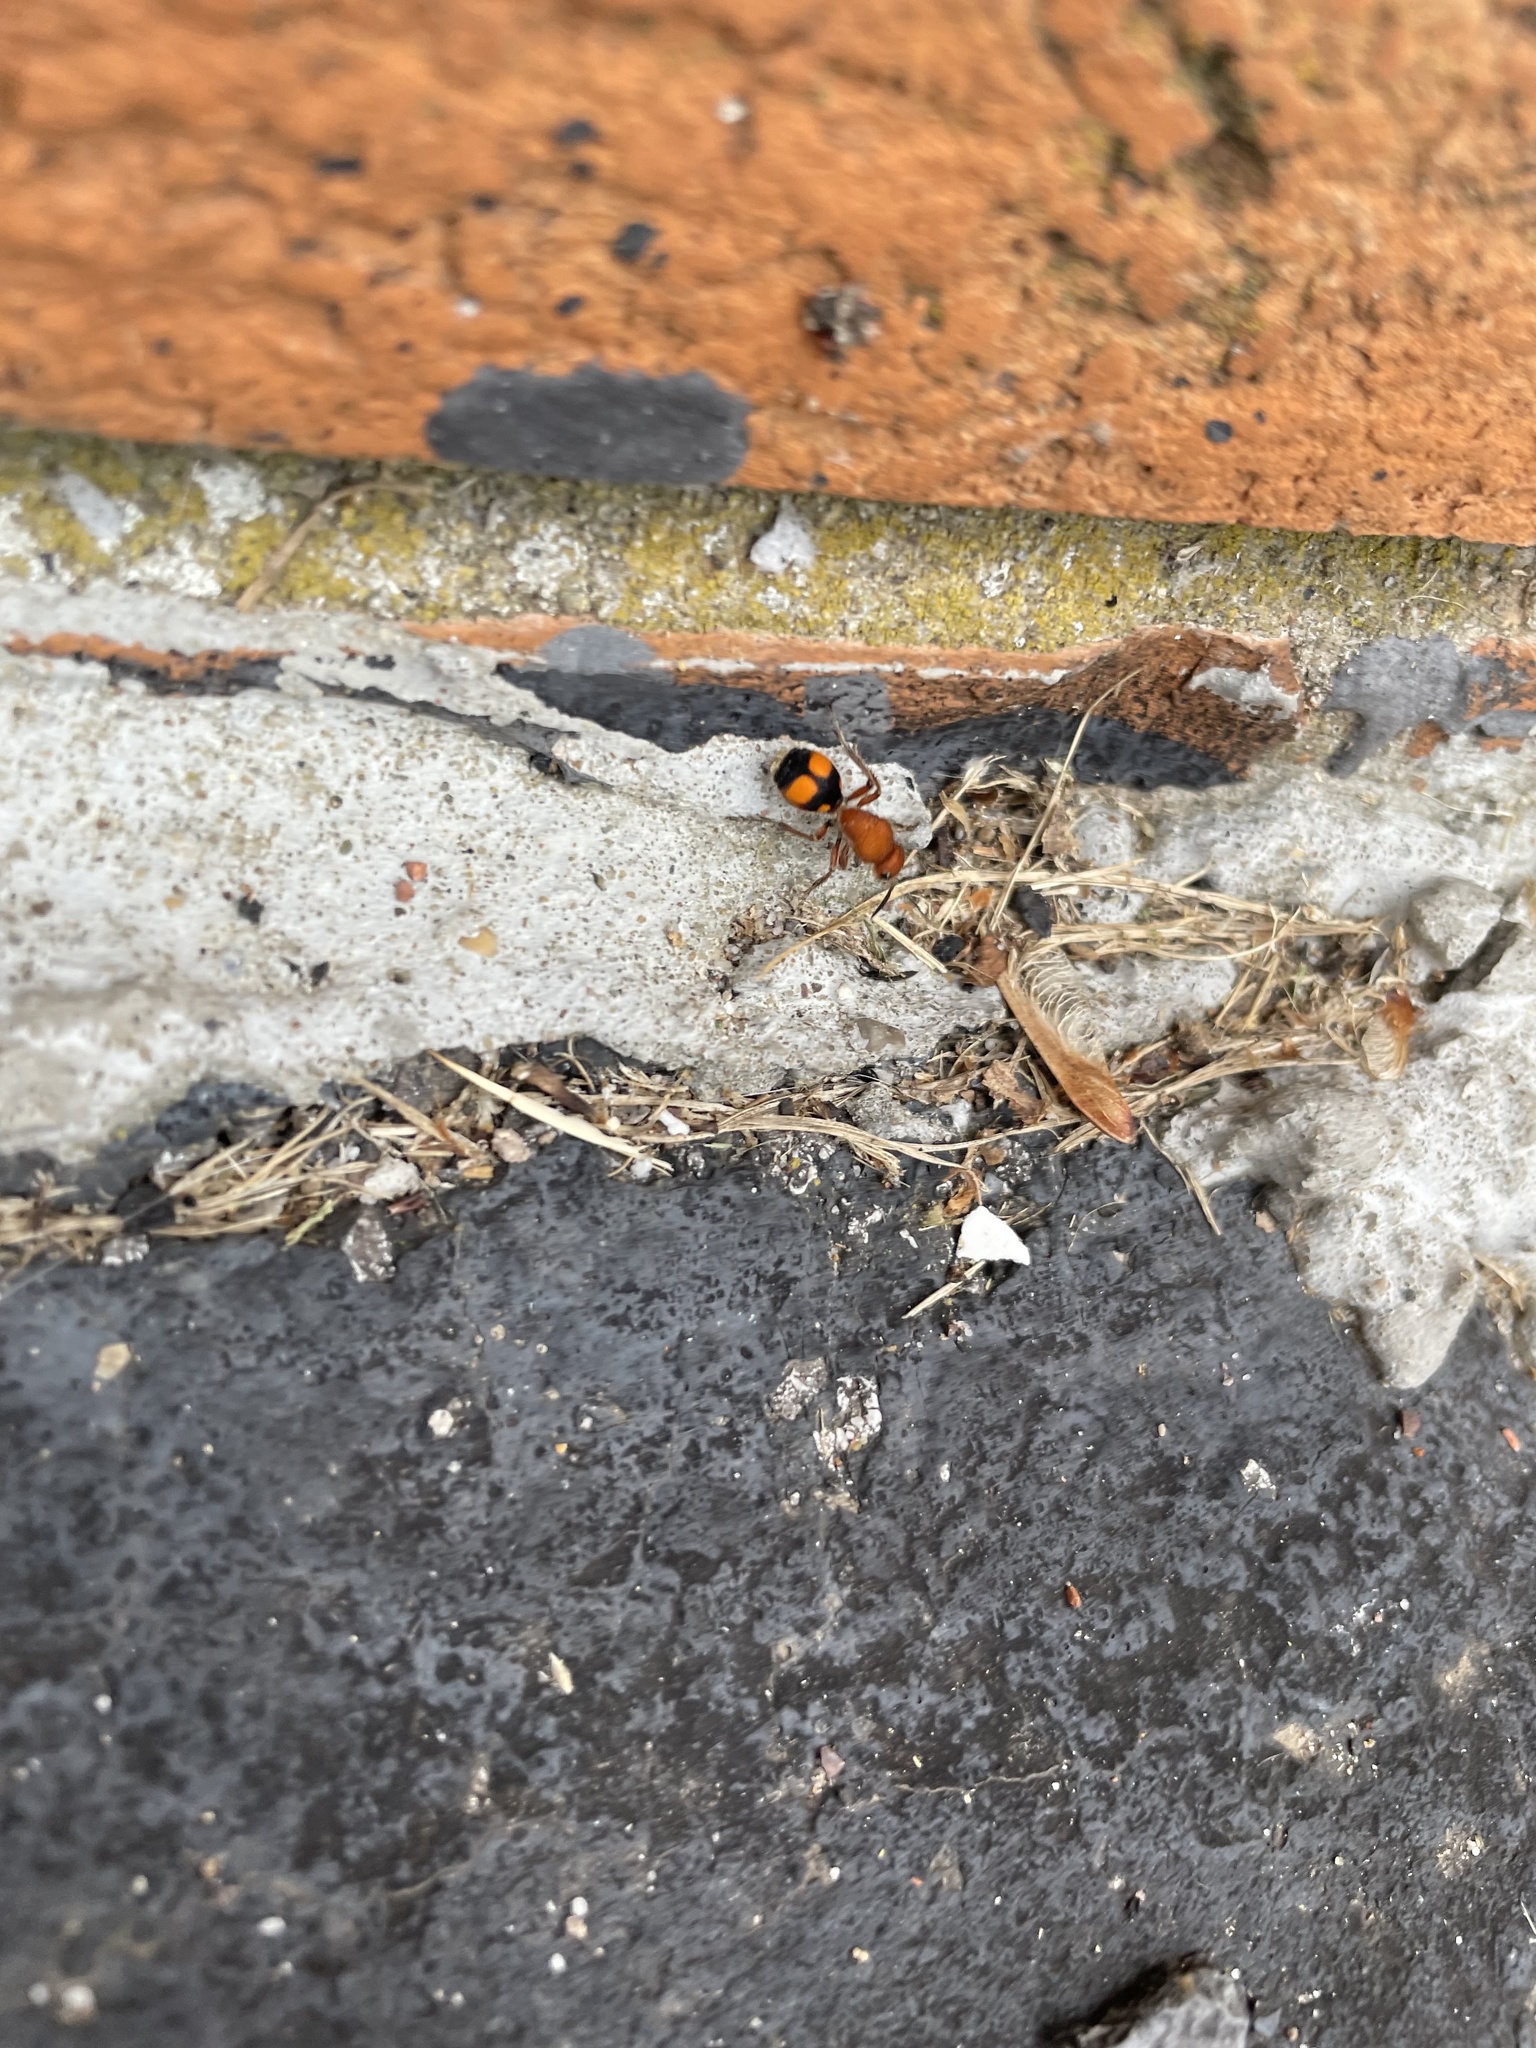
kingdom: Animalia
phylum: Arthropoda
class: Insecta
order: Hymenoptera
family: Mutillidae
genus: Dasymutilla
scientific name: Dasymutilla
